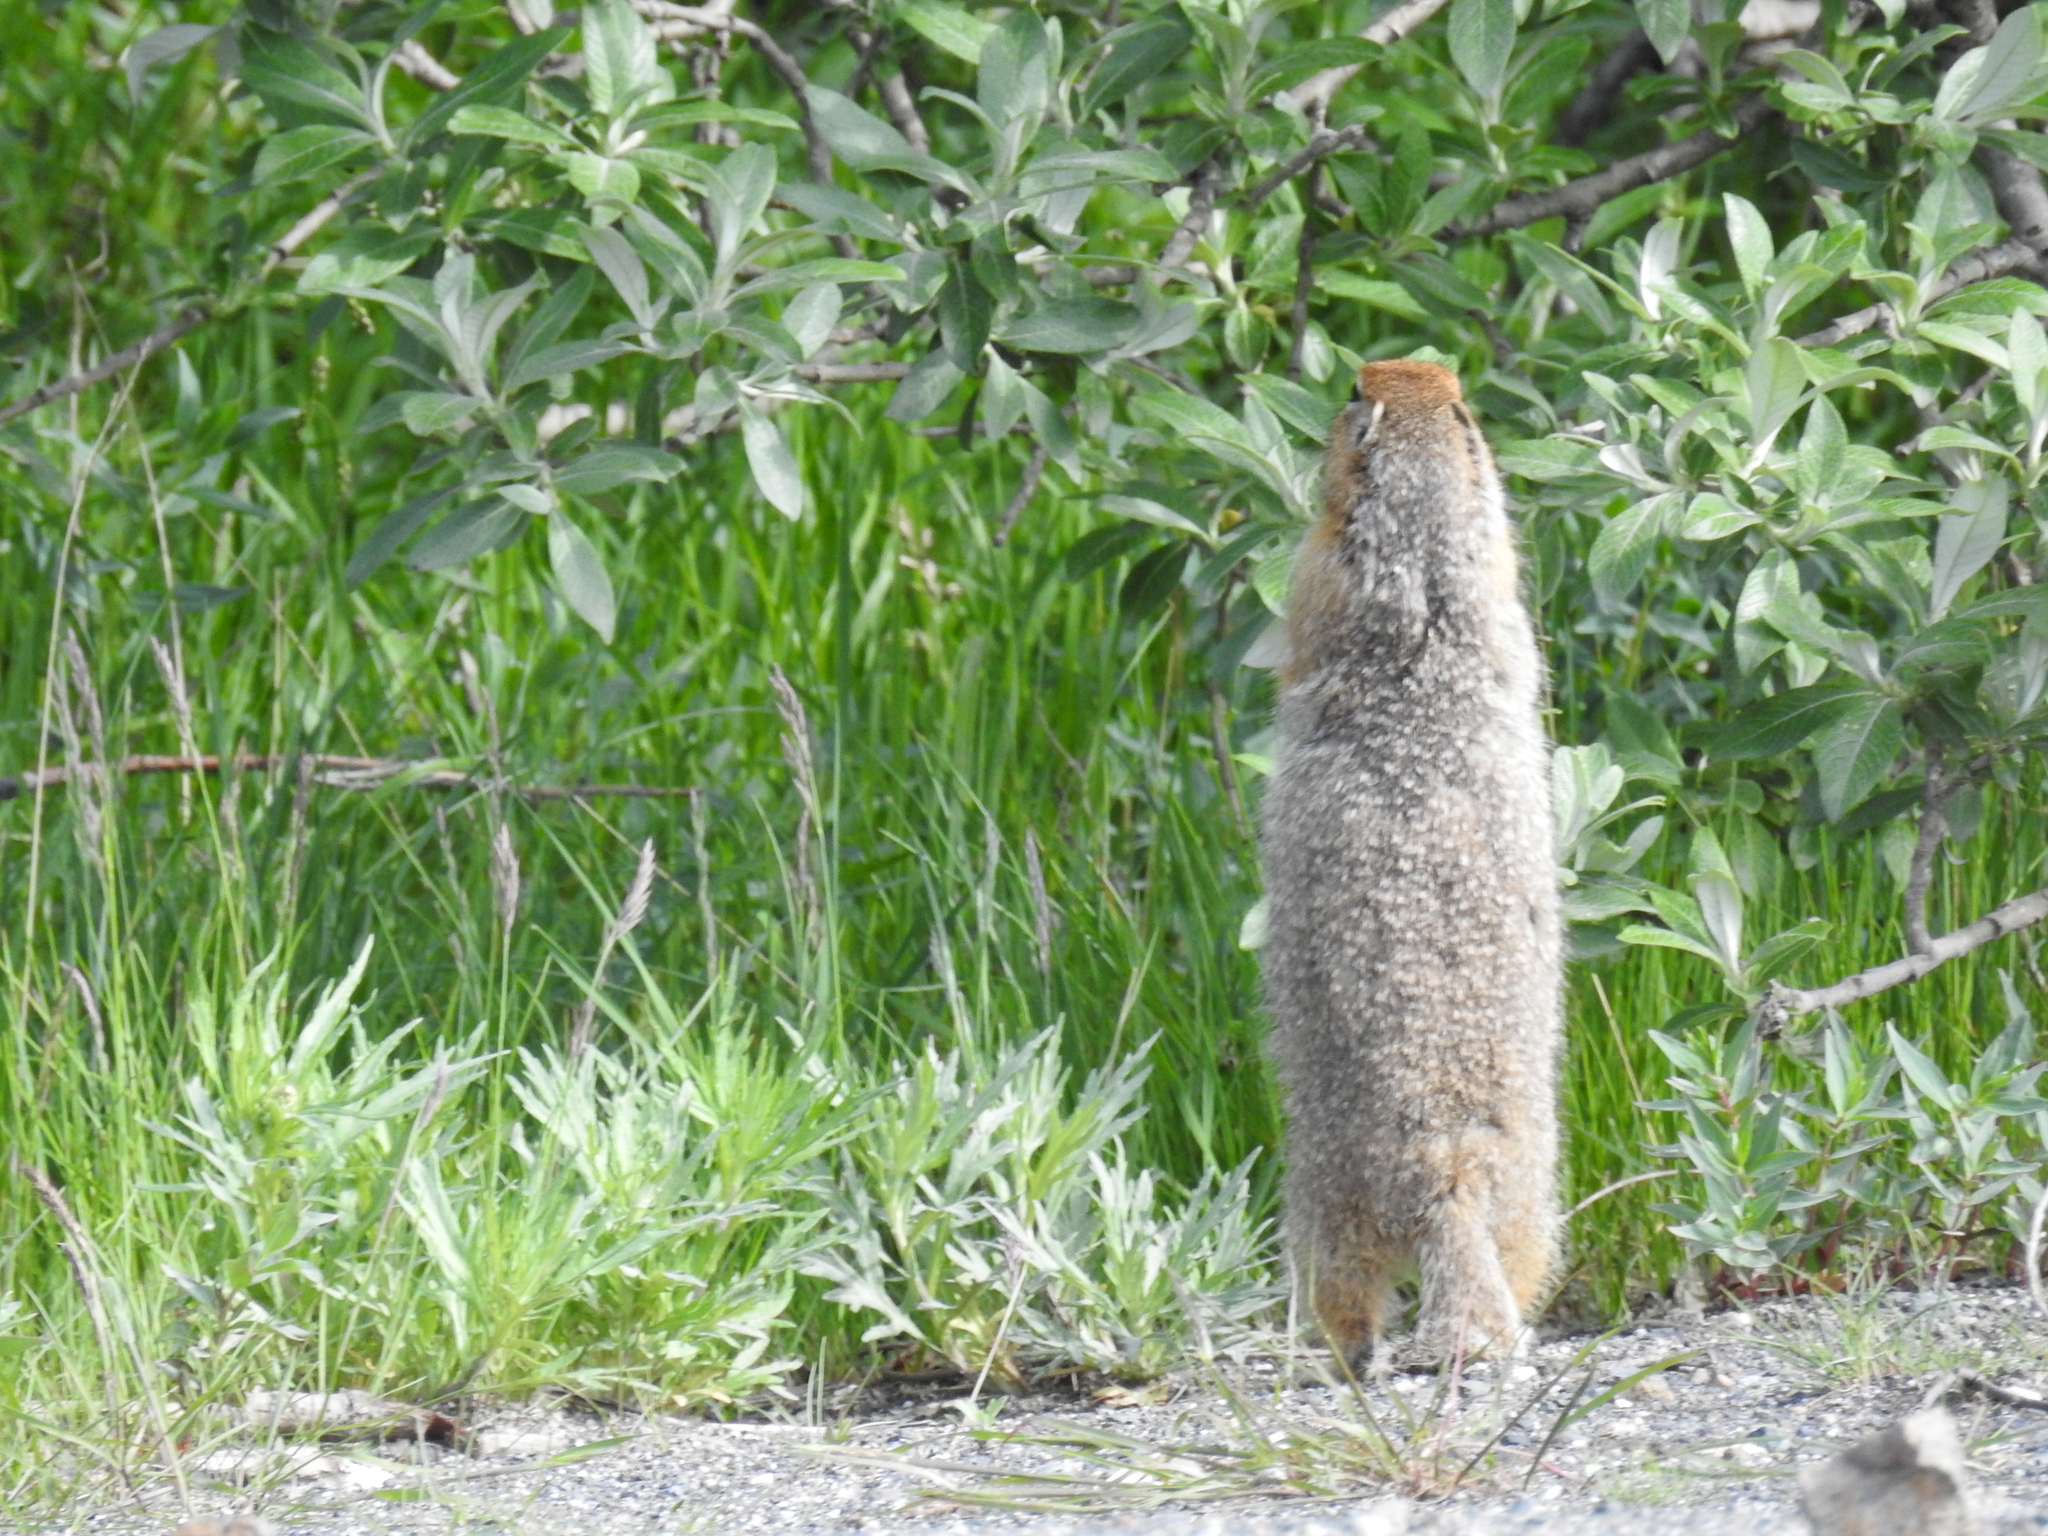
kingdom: Animalia
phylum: Chordata
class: Mammalia
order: Rodentia
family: Sciuridae
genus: Urocitellus
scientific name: Urocitellus parryii
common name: Arctic ground squirrel
